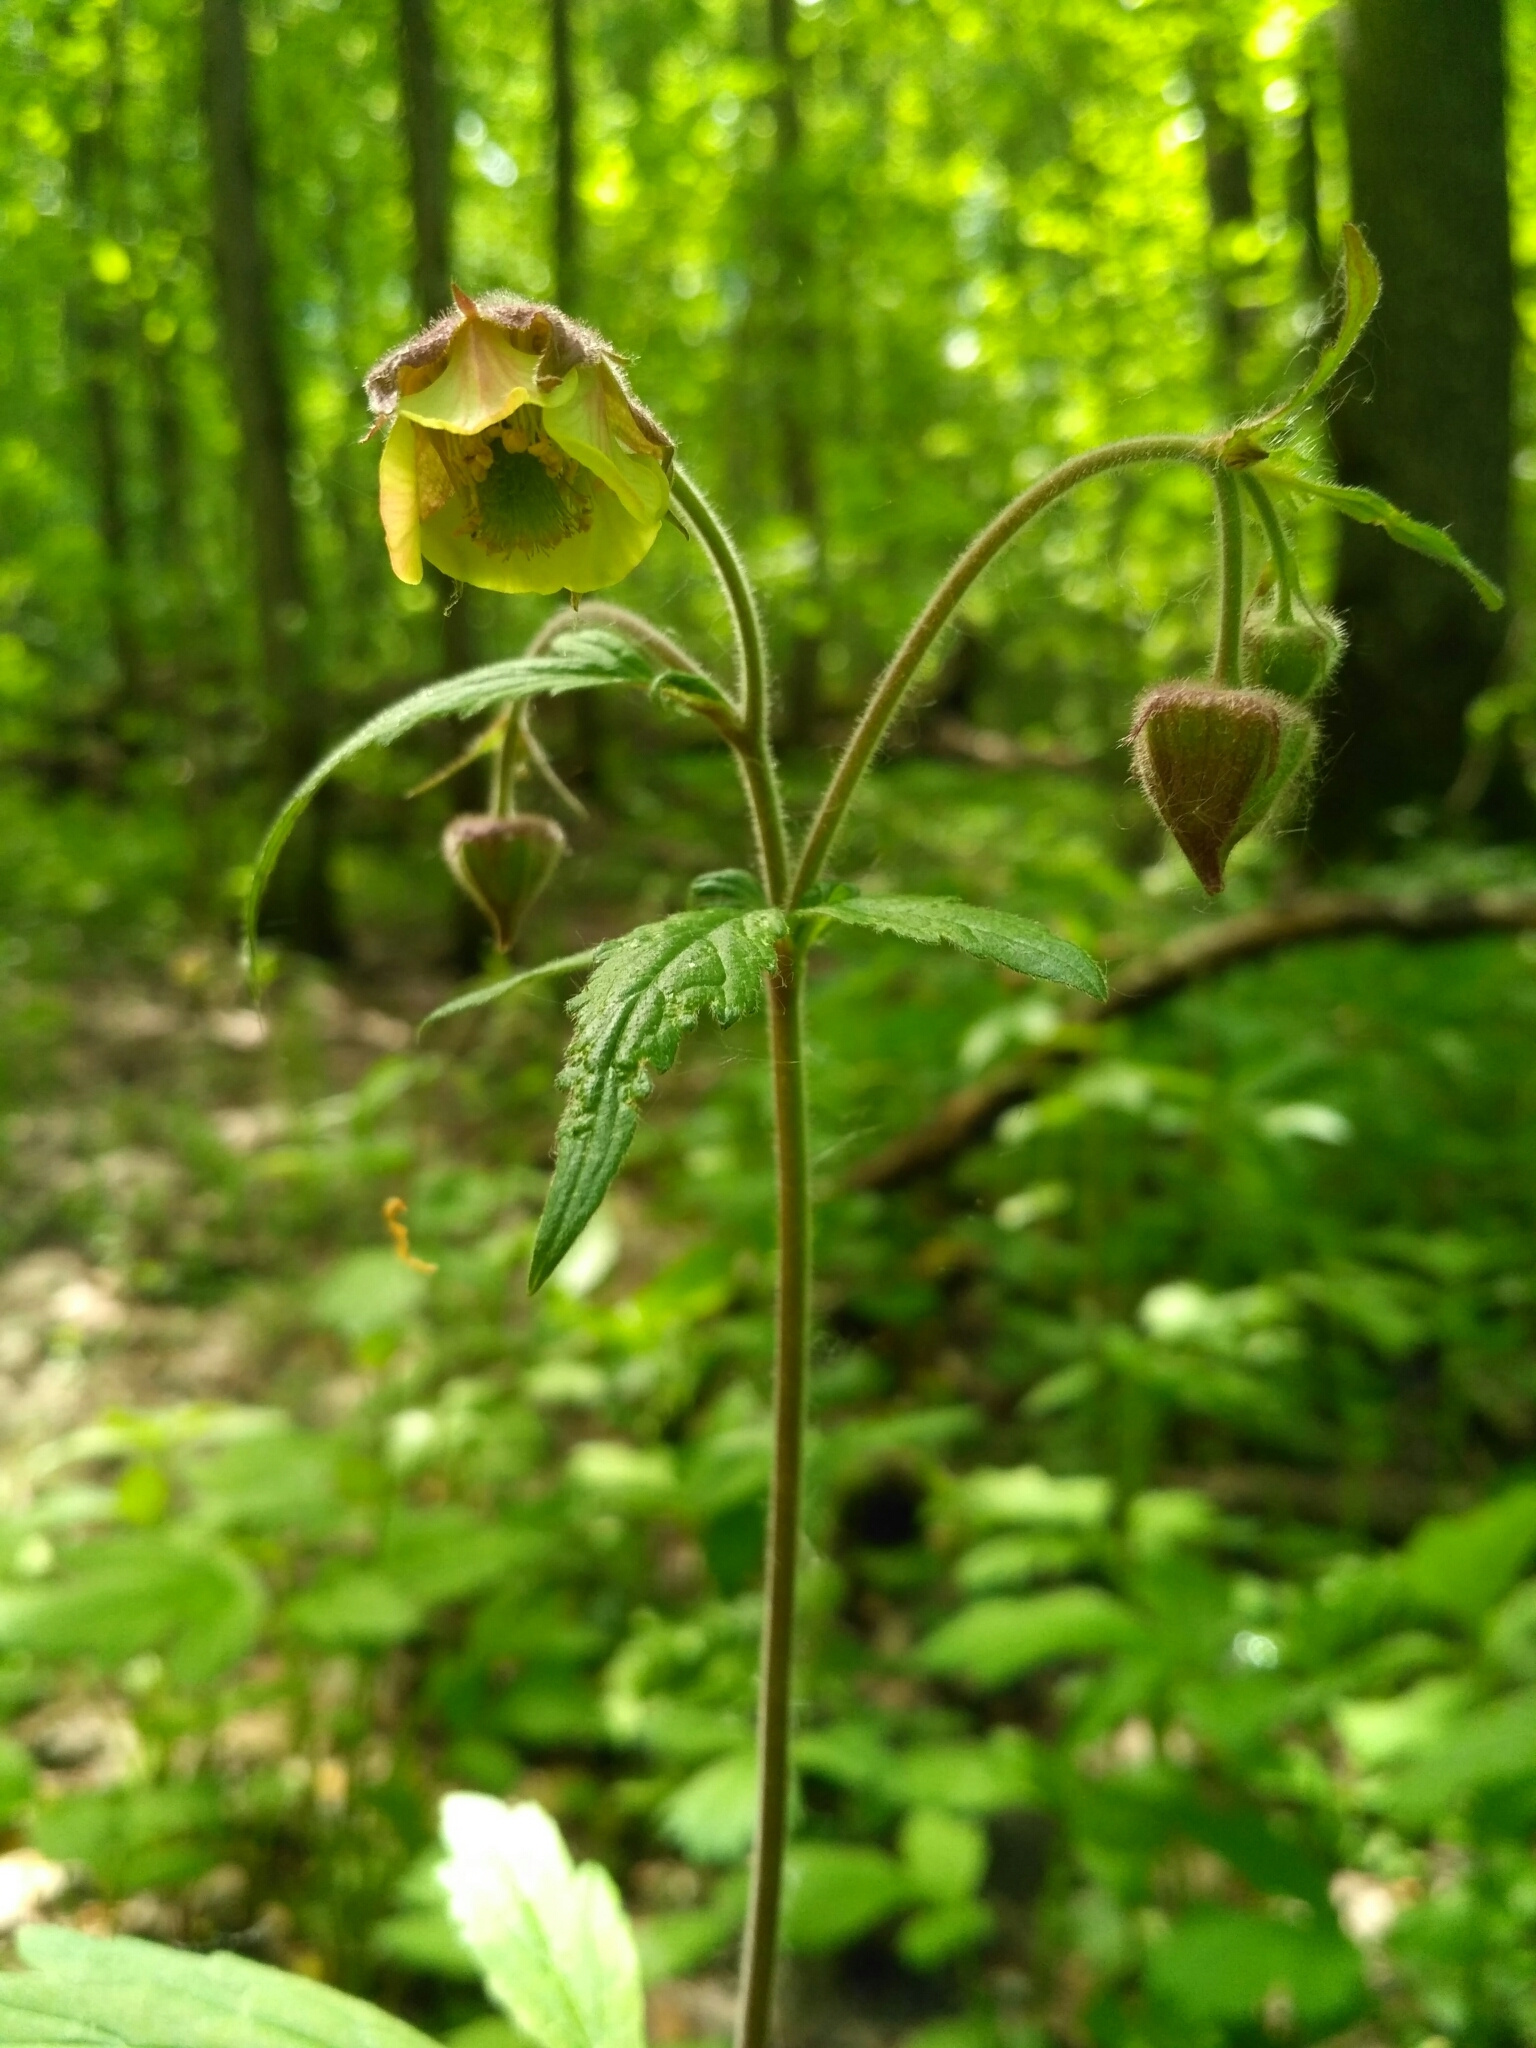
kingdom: Plantae
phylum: Tracheophyta
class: Magnoliopsida
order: Rosales
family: Rosaceae
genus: Geum
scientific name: Geum intermedium
